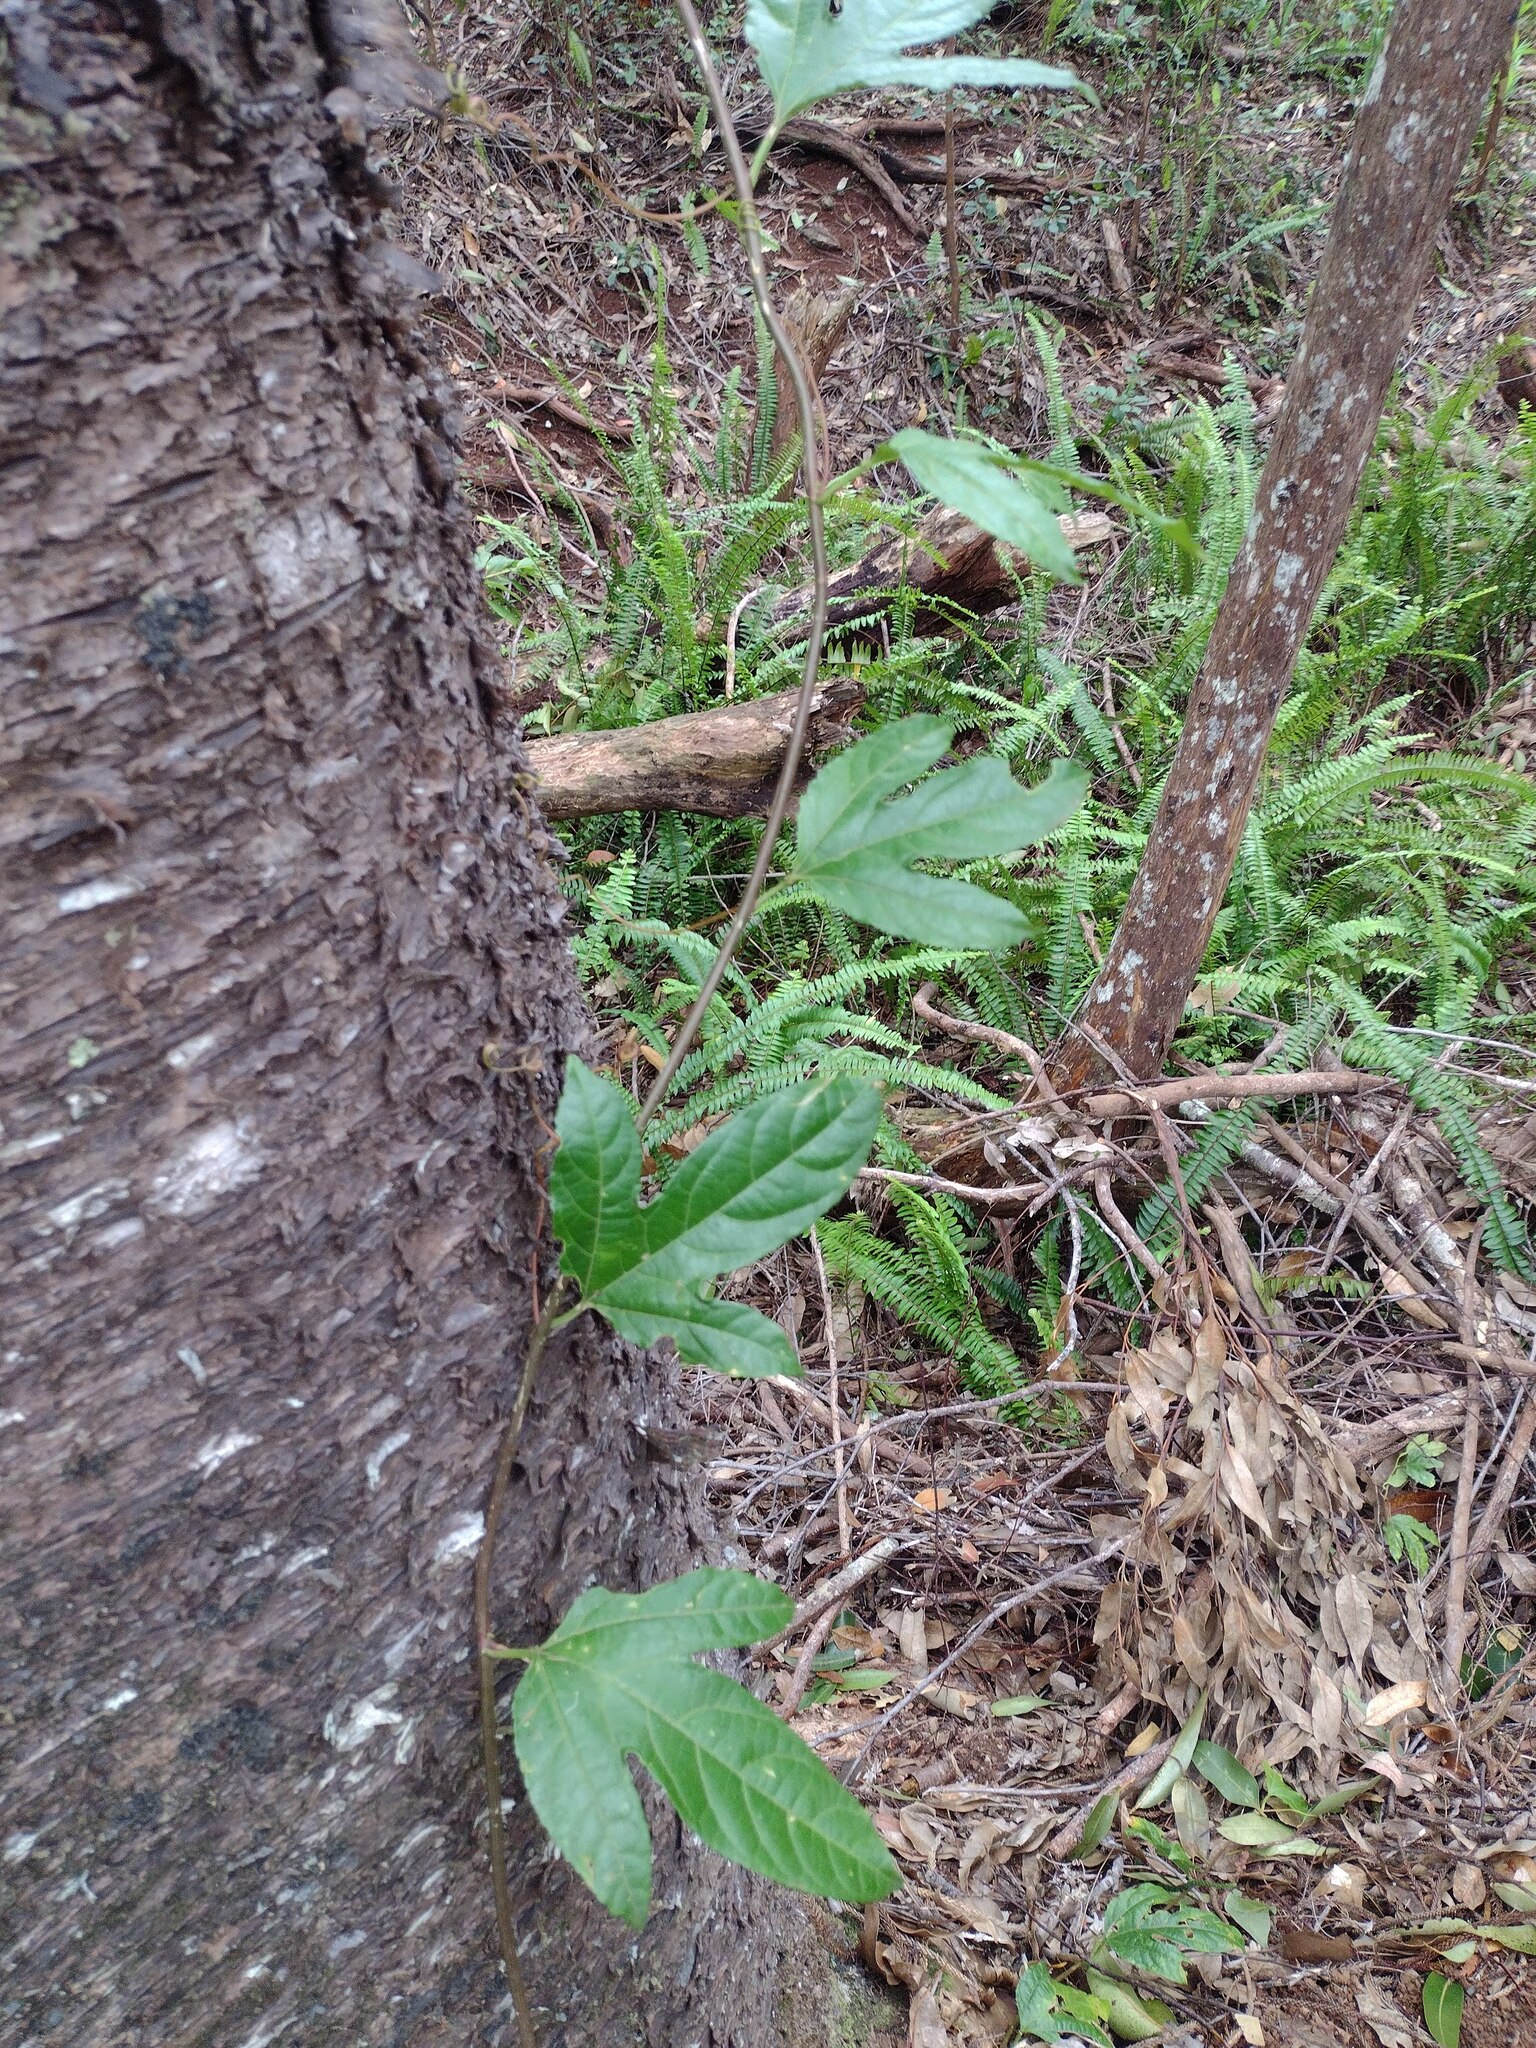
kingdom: Plantae
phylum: Tracheophyta
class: Magnoliopsida
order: Malpighiales
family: Passifloraceae
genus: Passiflora
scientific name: Passiflora edulis
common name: Purple granadilla
